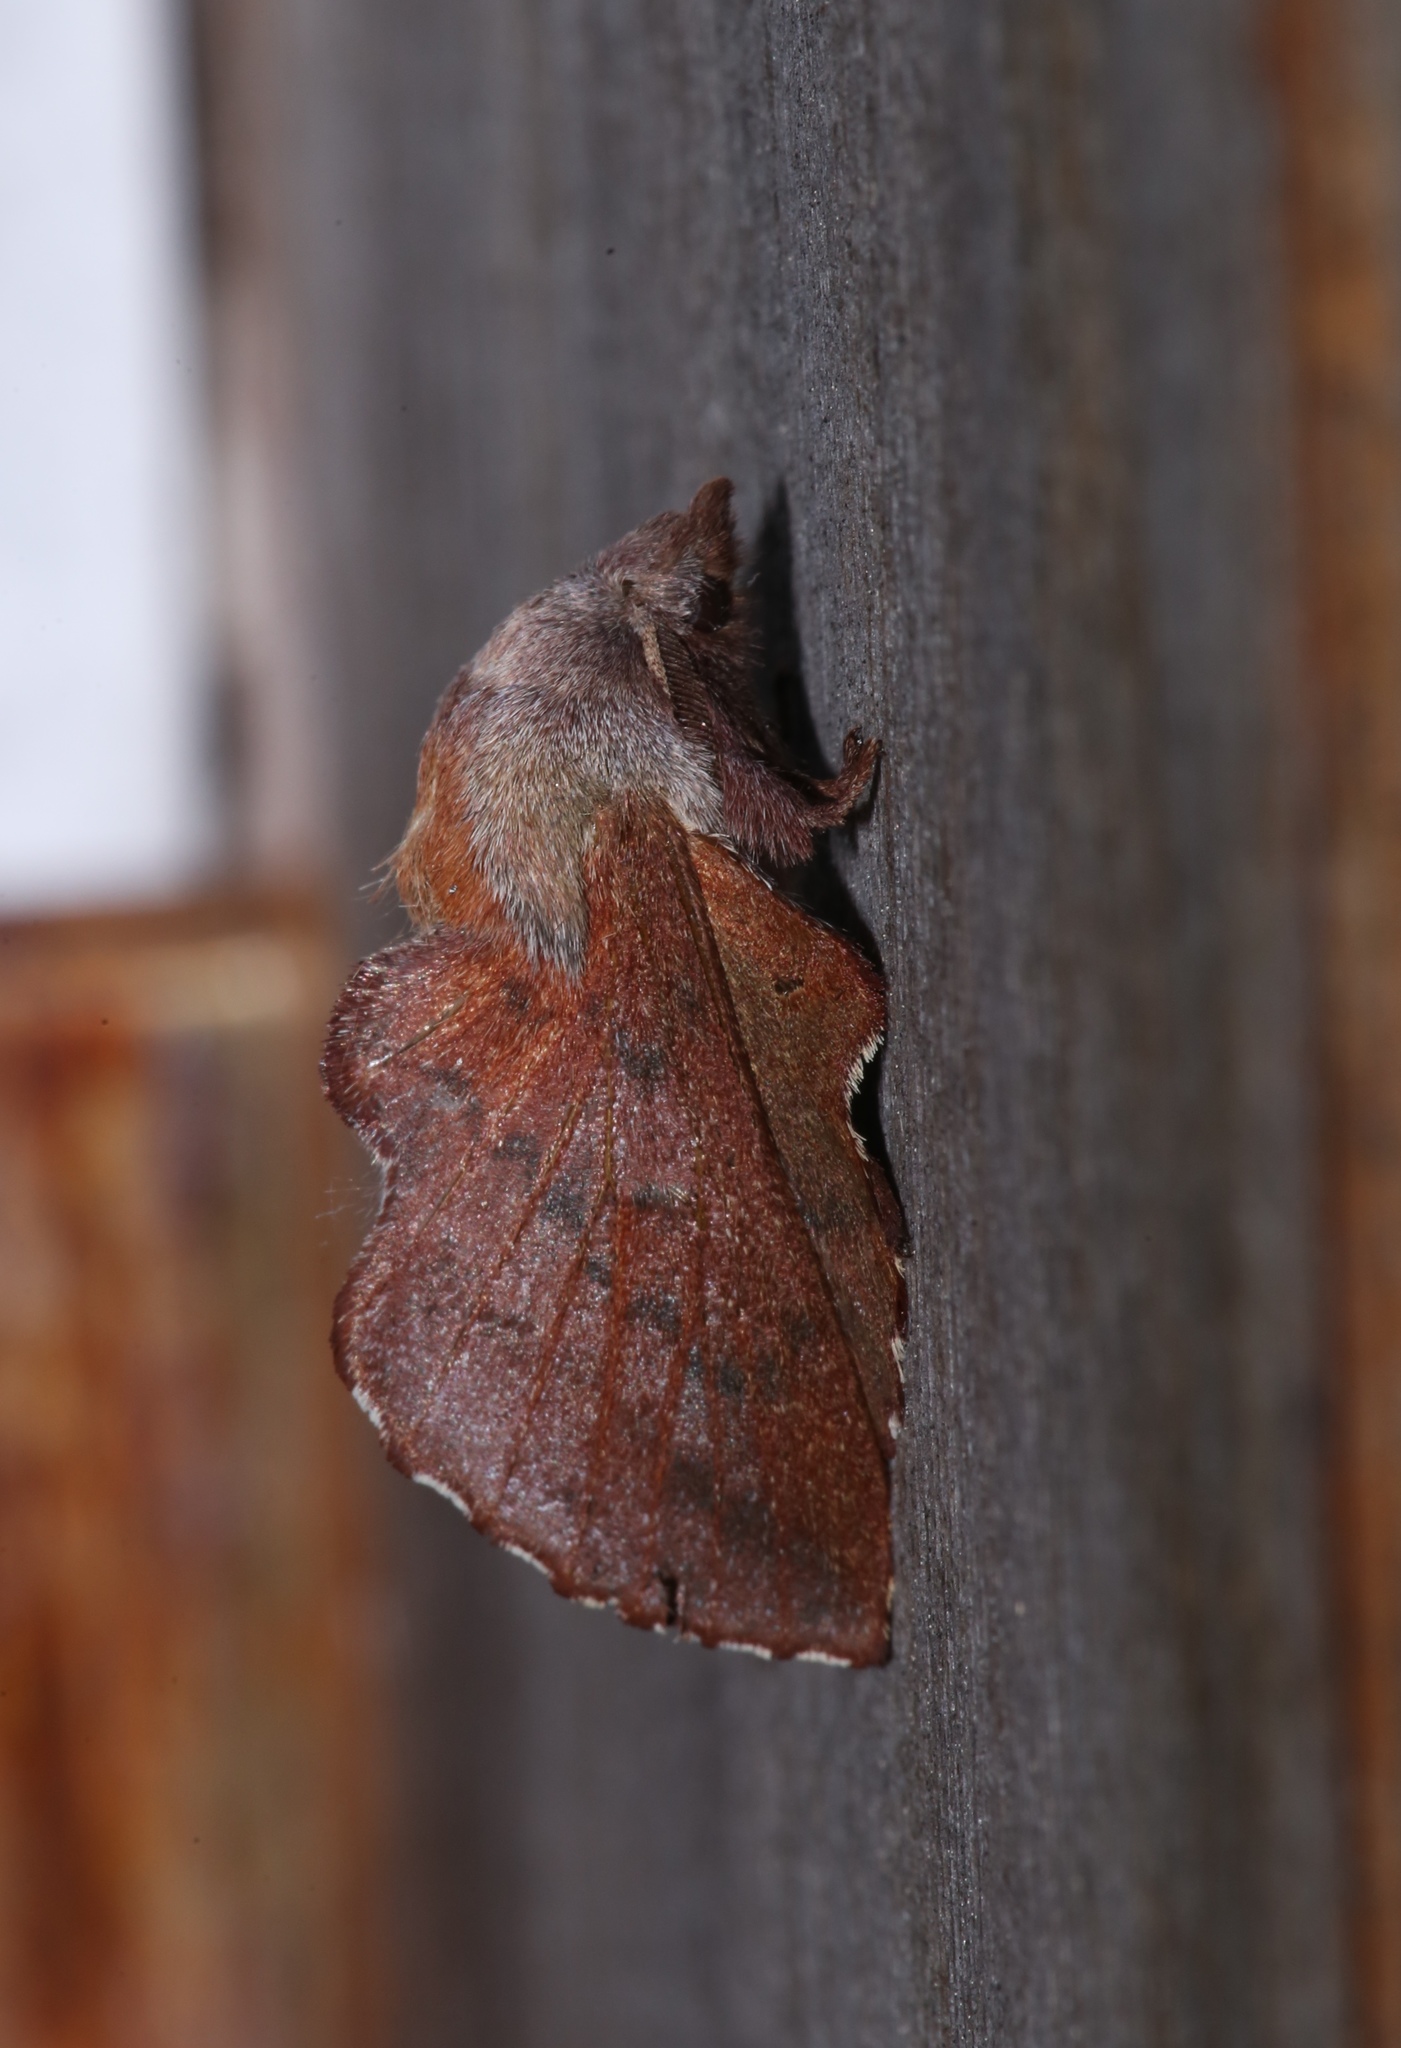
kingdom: Animalia
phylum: Arthropoda
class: Insecta
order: Lepidoptera
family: Lasiocampidae
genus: Phyllodesma
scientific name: Phyllodesma americana
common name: American lappet moth
